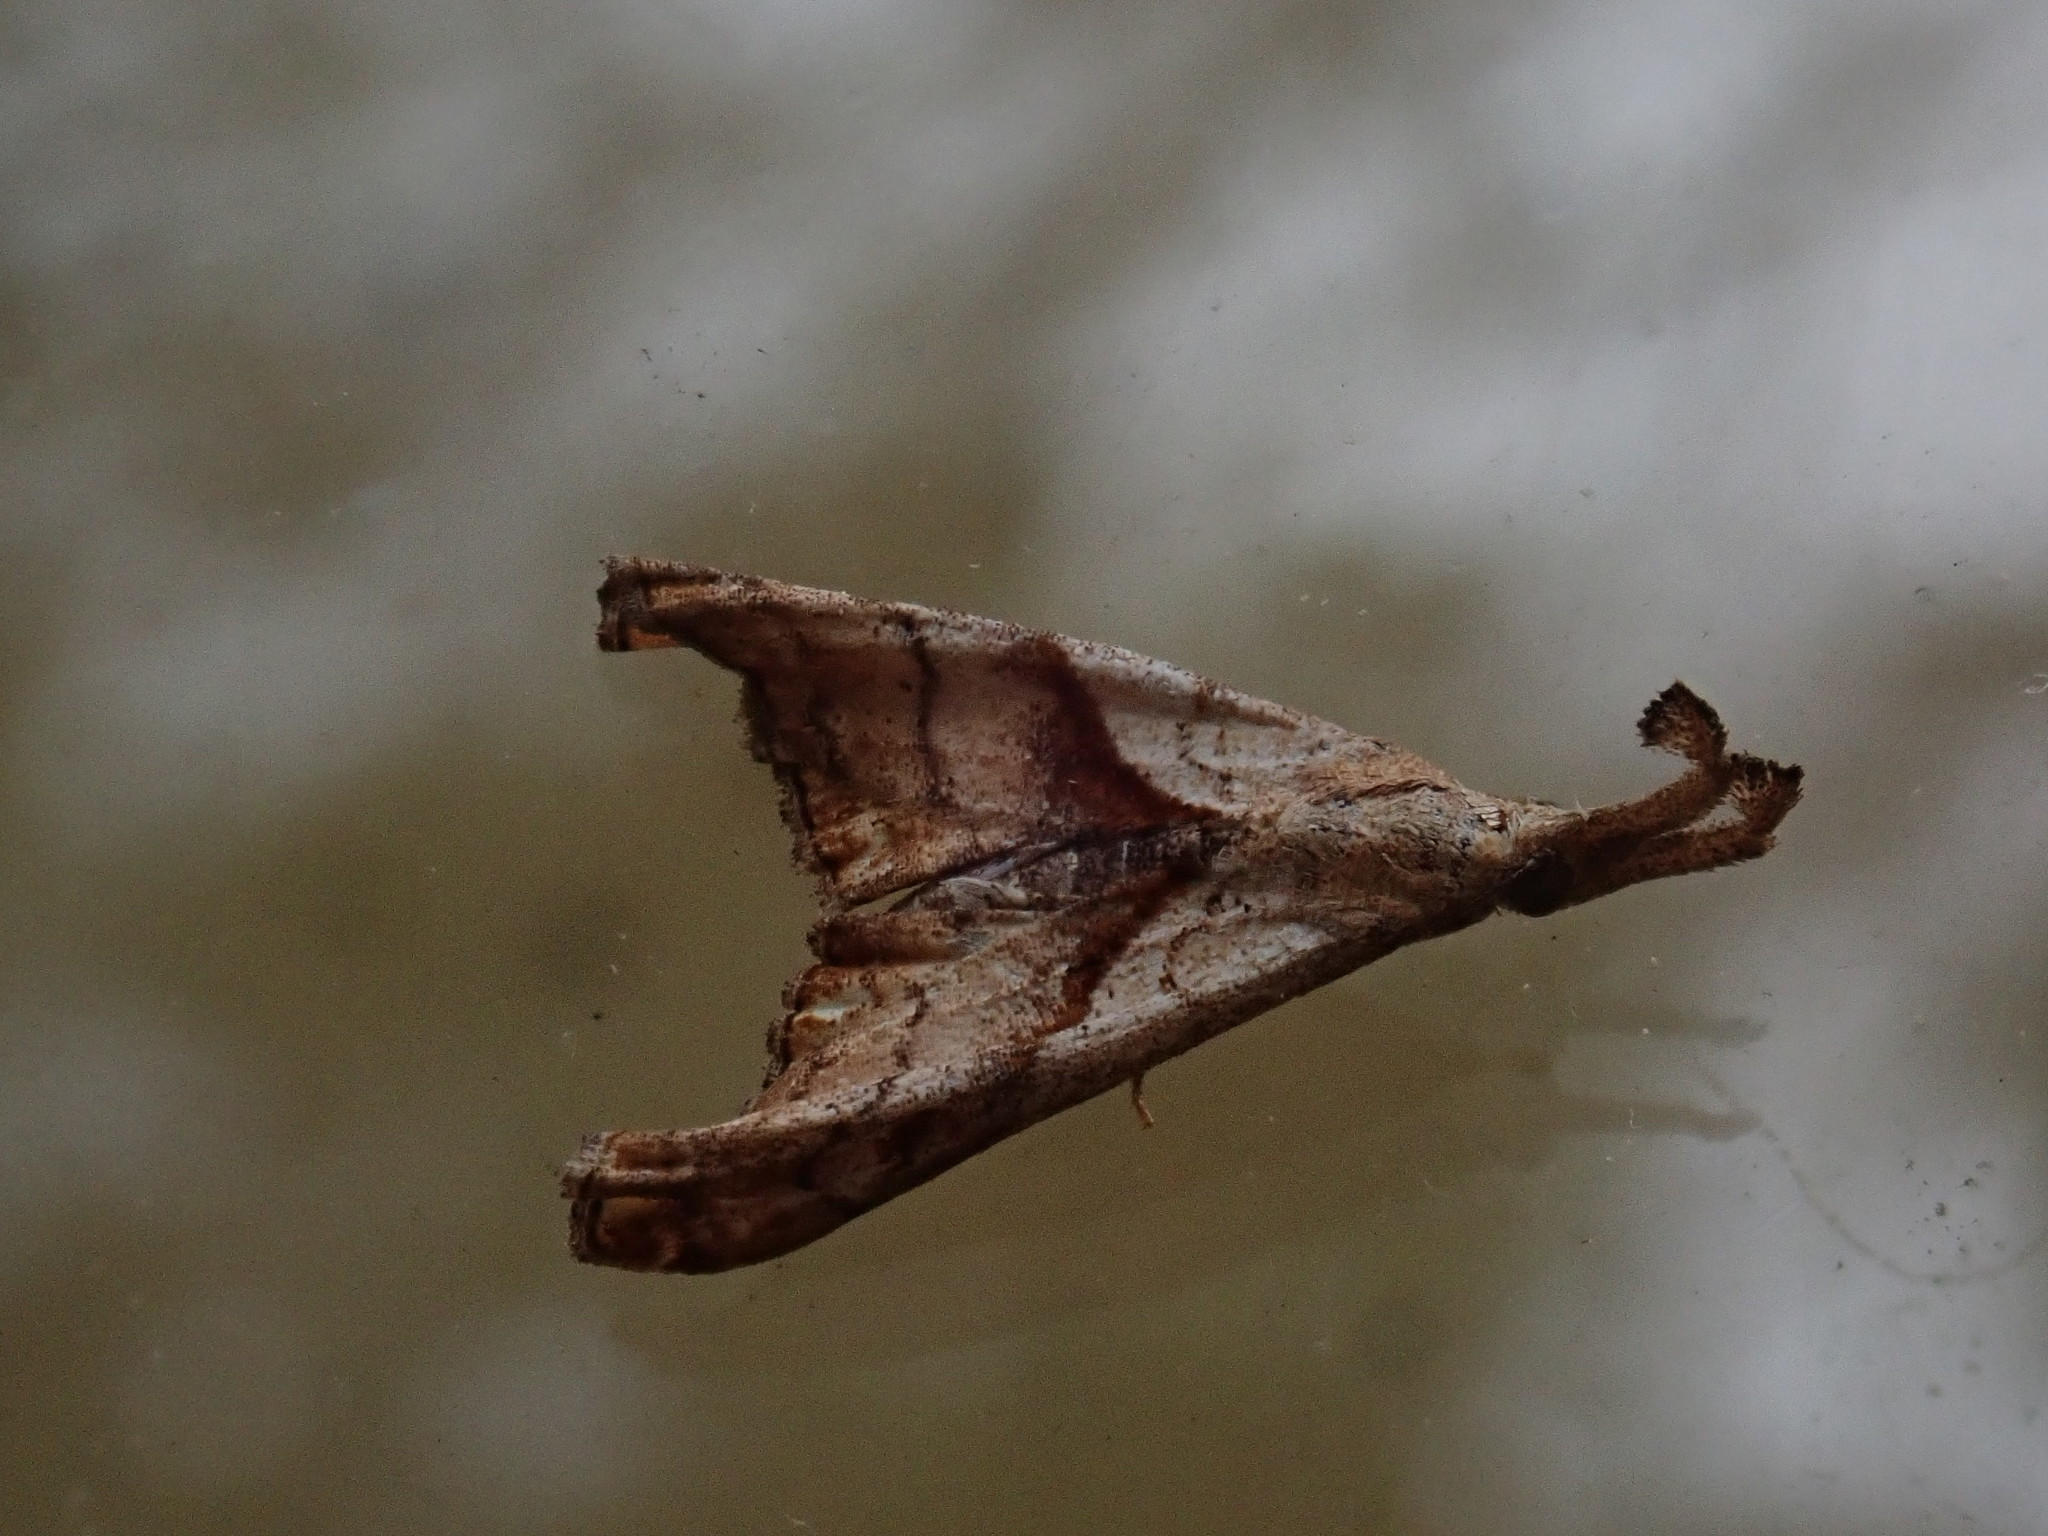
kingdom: Animalia
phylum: Arthropoda
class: Insecta
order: Lepidoptera
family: Erebidae
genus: Palthis
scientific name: Palthis angulalis
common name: Dark-spotted palthis moth
